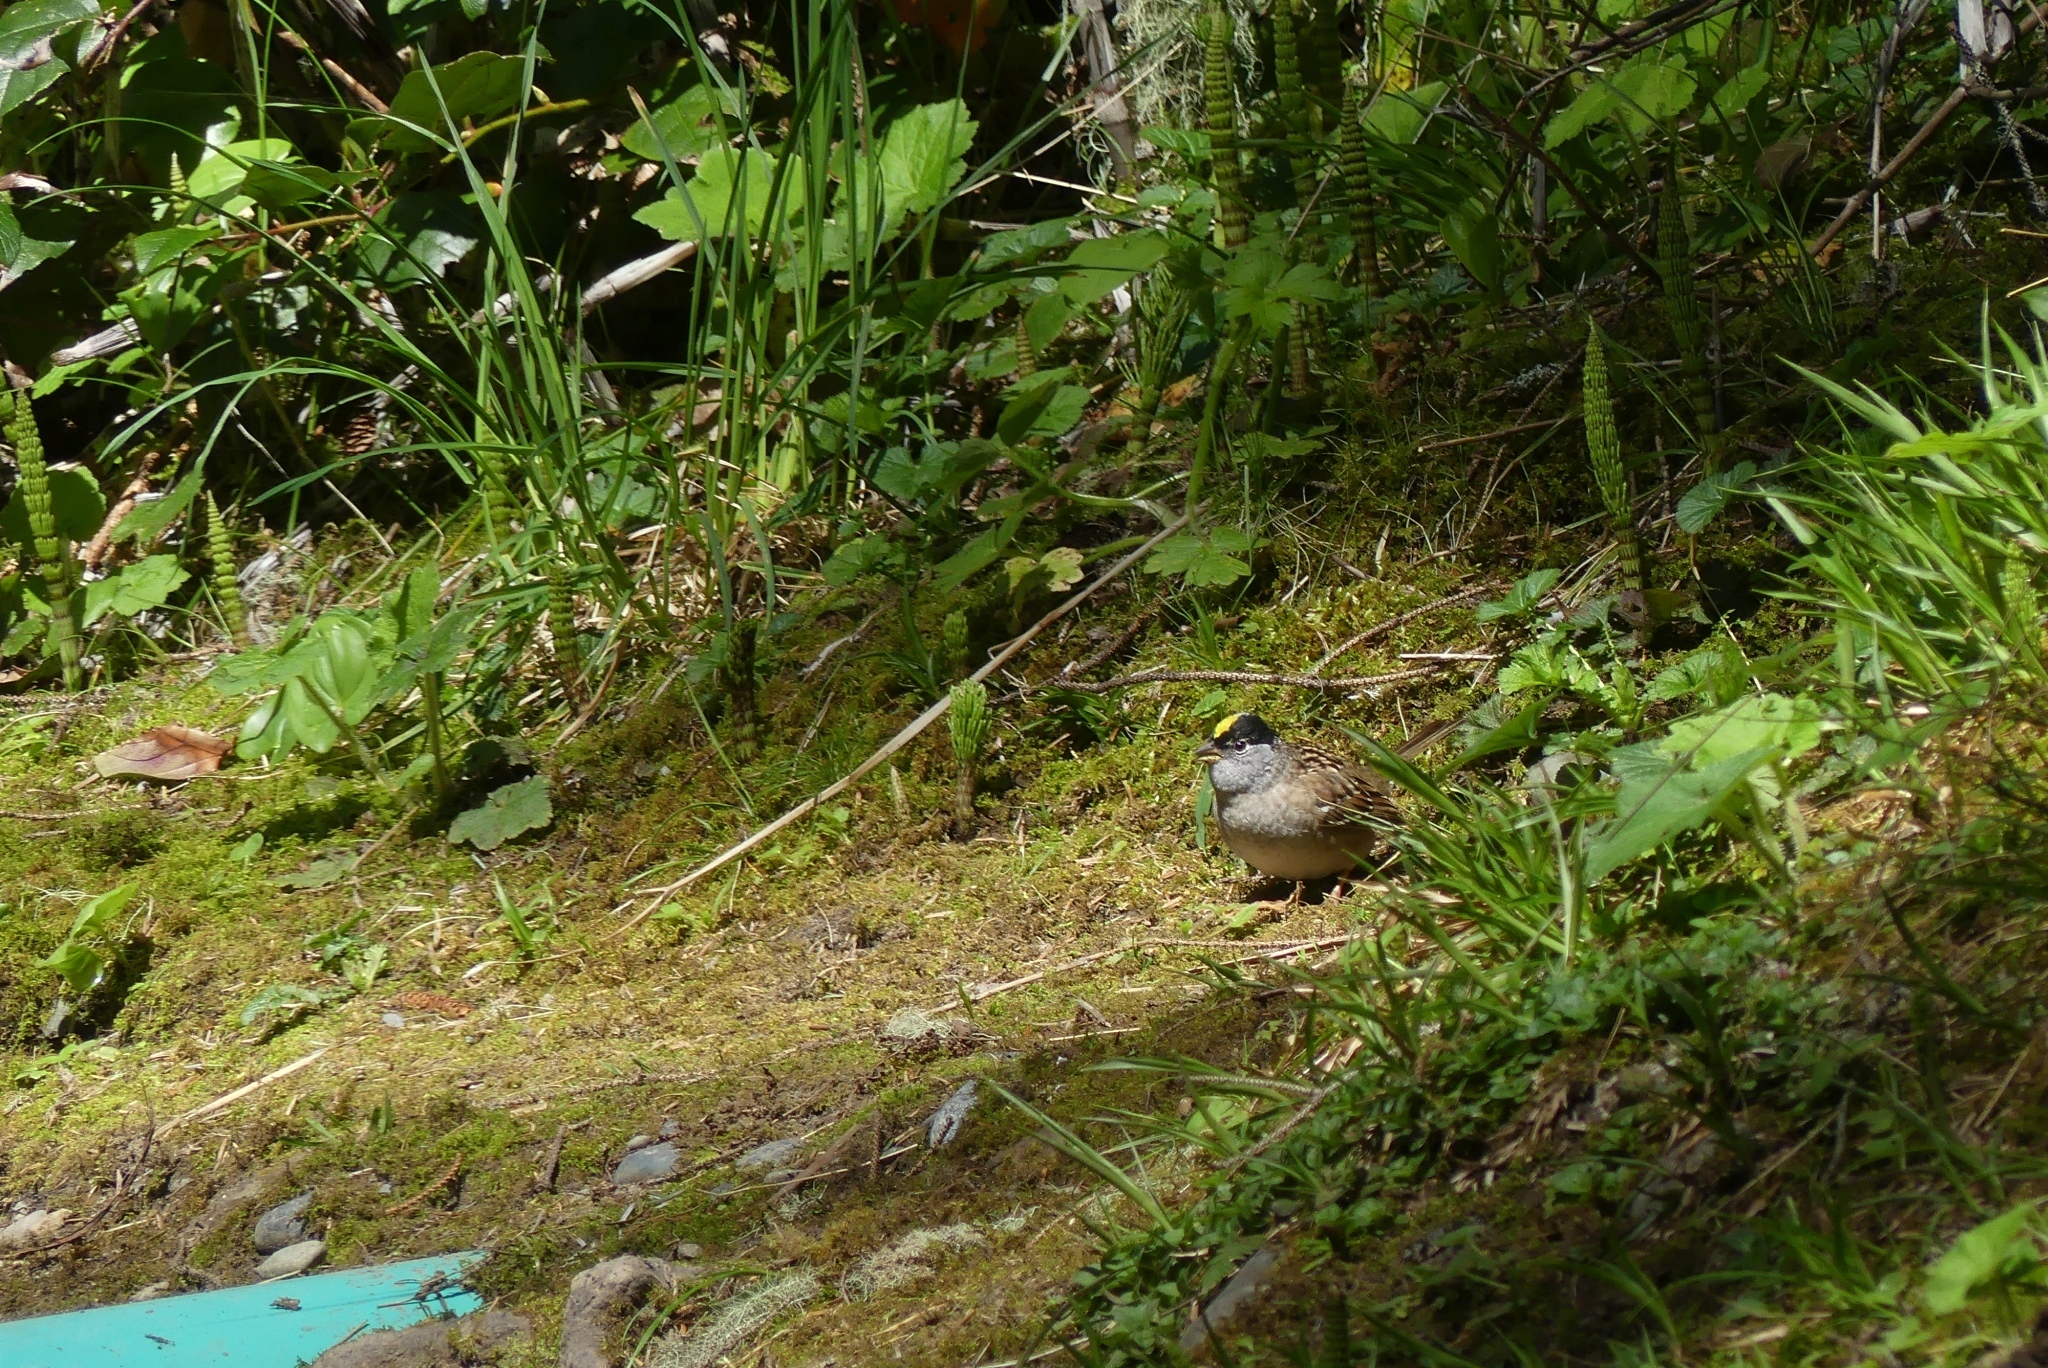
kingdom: Animalia
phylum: Chordata
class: Aves
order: Passeriformes
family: Passerellidae
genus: Zonotrichia
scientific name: Zonotrichia atricapilla
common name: Golden-crowned sparrow
